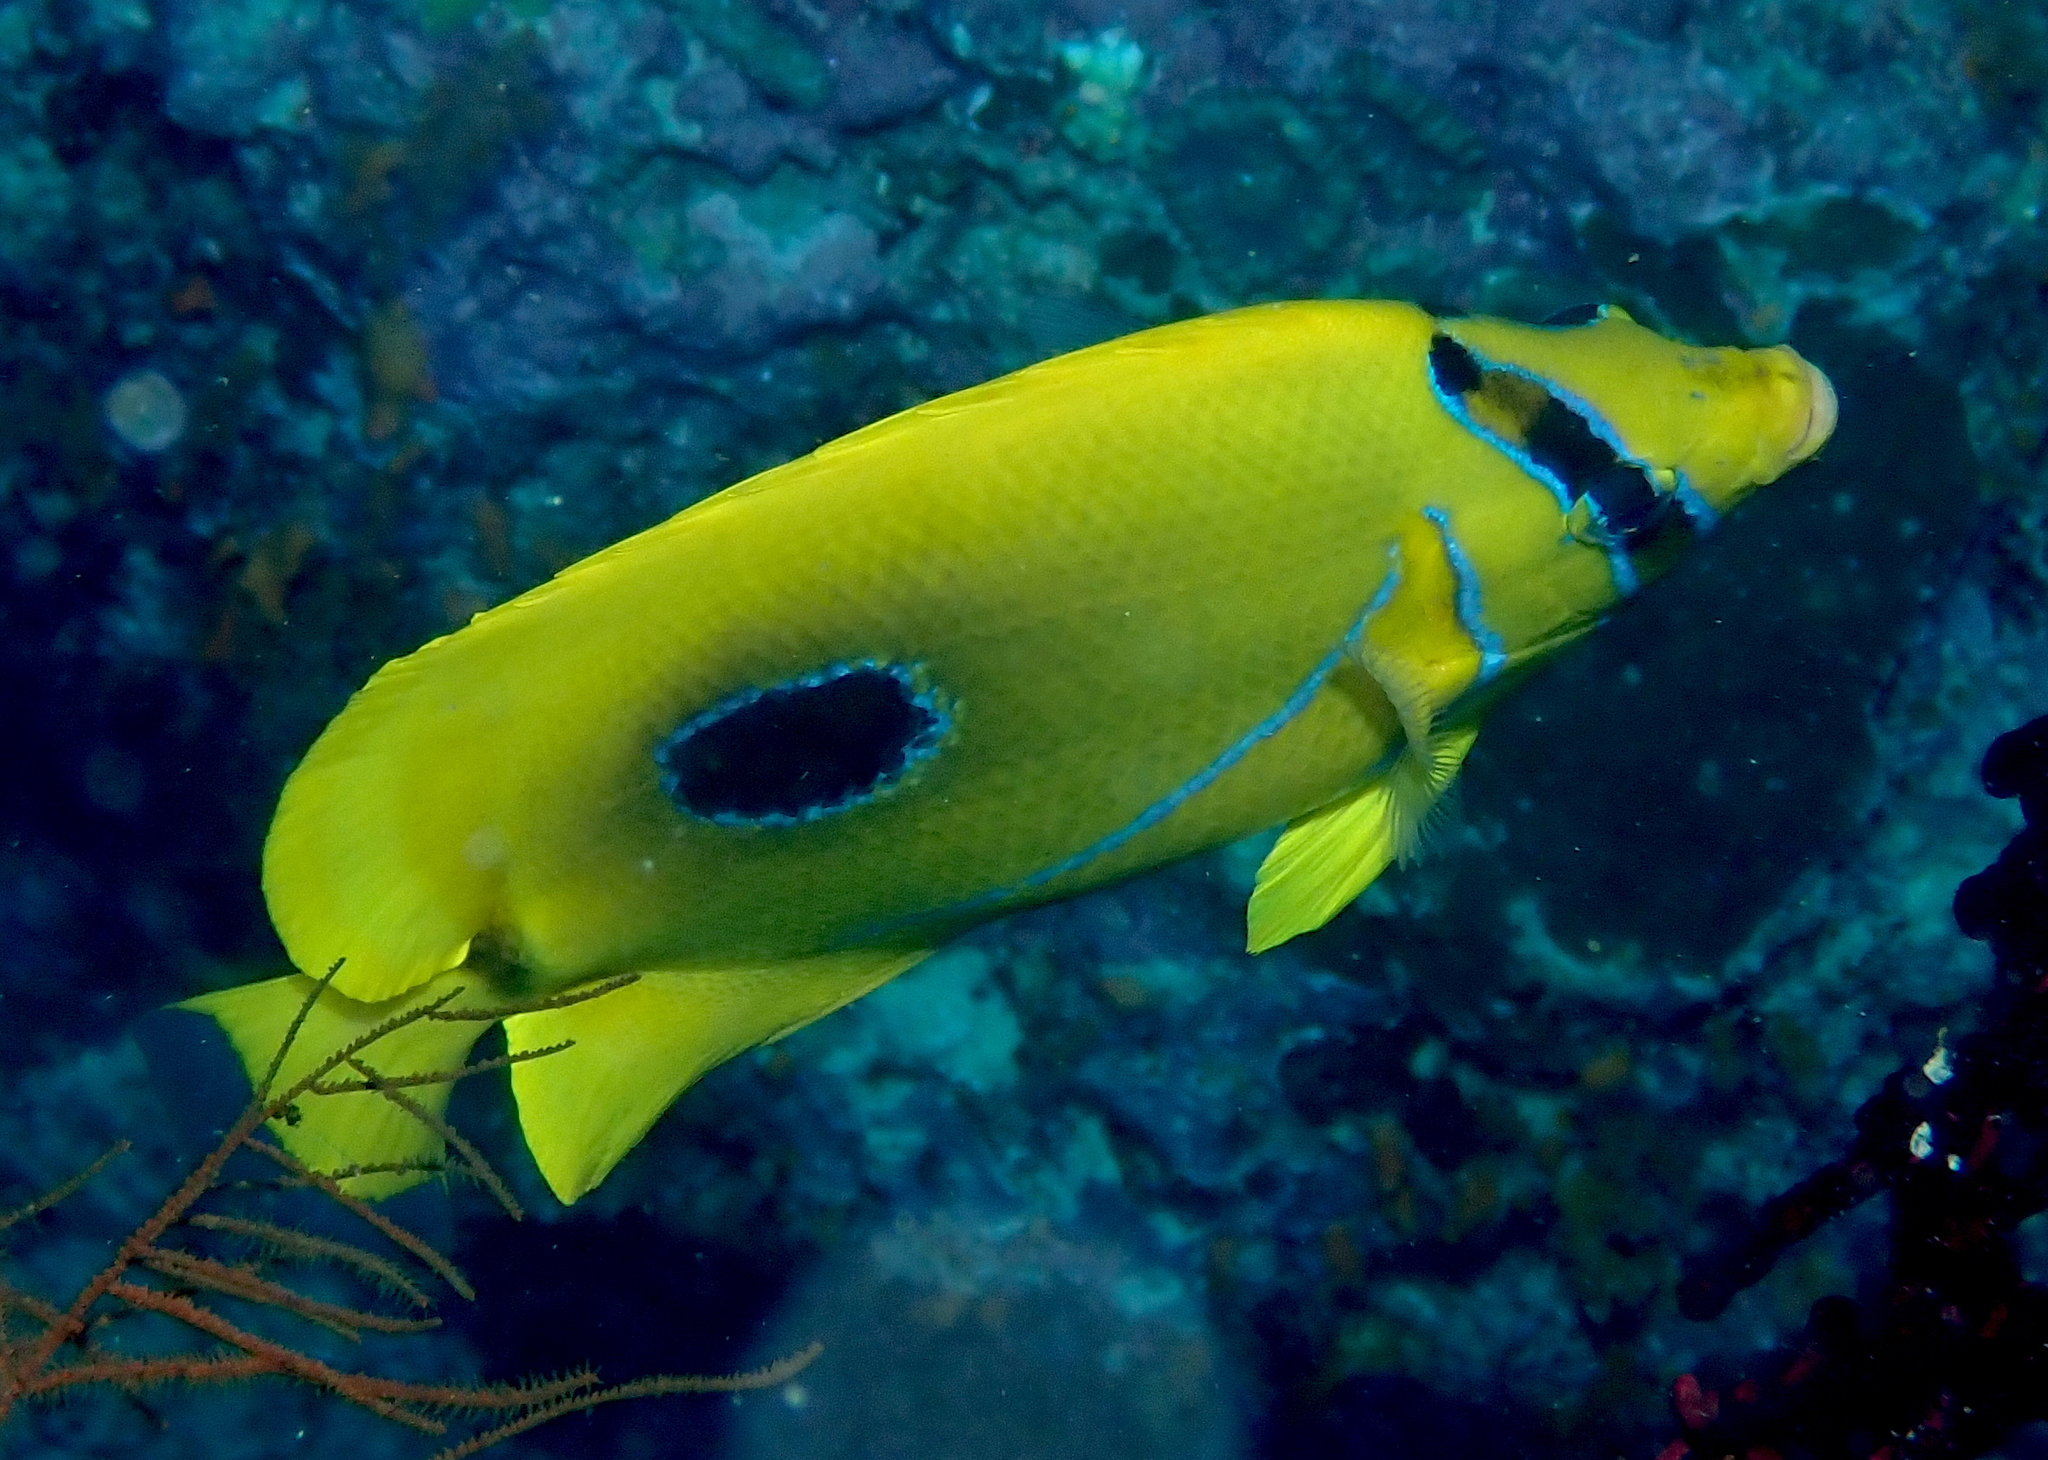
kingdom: Animalia
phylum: Chordata
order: Perciformes
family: Chaetodontidae
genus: Chaetodon
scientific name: Chaetodon bennetti
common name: Bennett's butterflyfish
